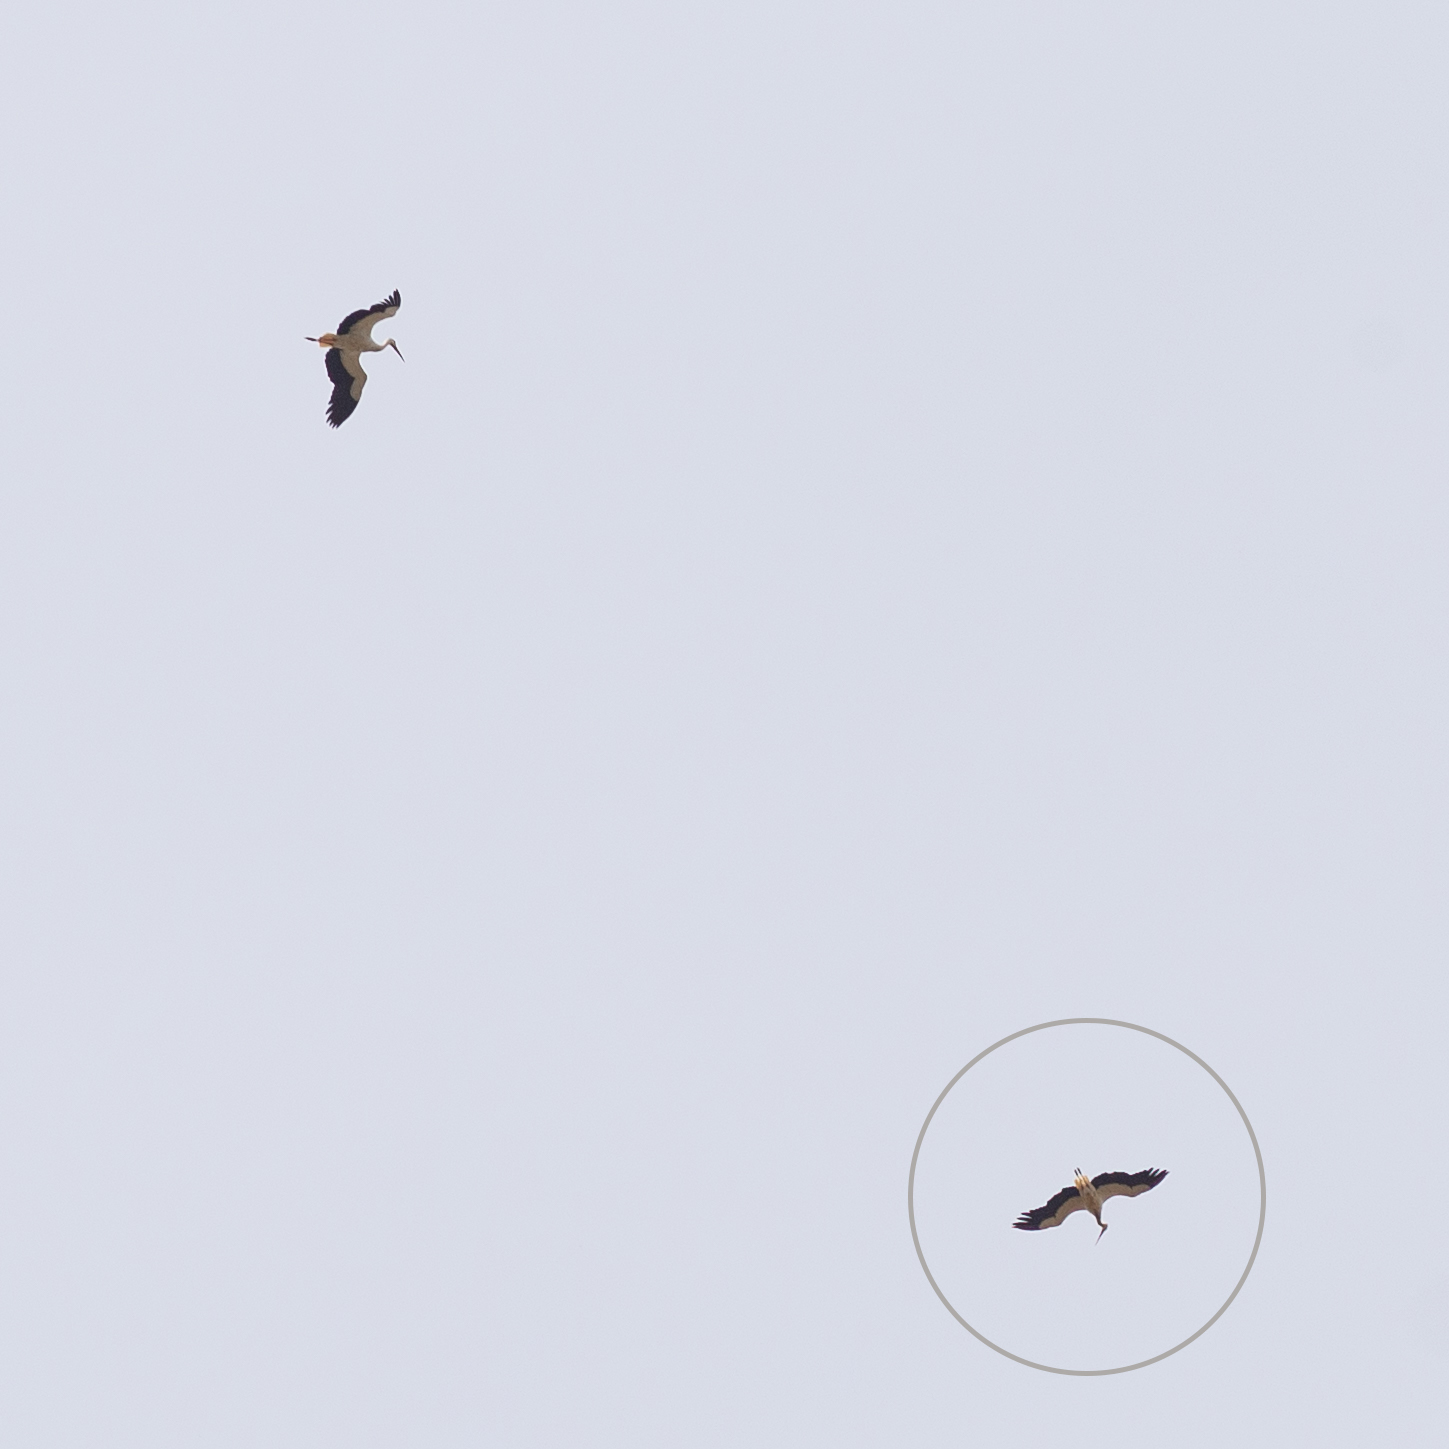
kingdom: Animalia
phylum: Chordata
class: Aves
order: Ciconiiformes
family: Ciconiidae
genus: Ciconia
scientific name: Ciconia ciconia
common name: White stork
